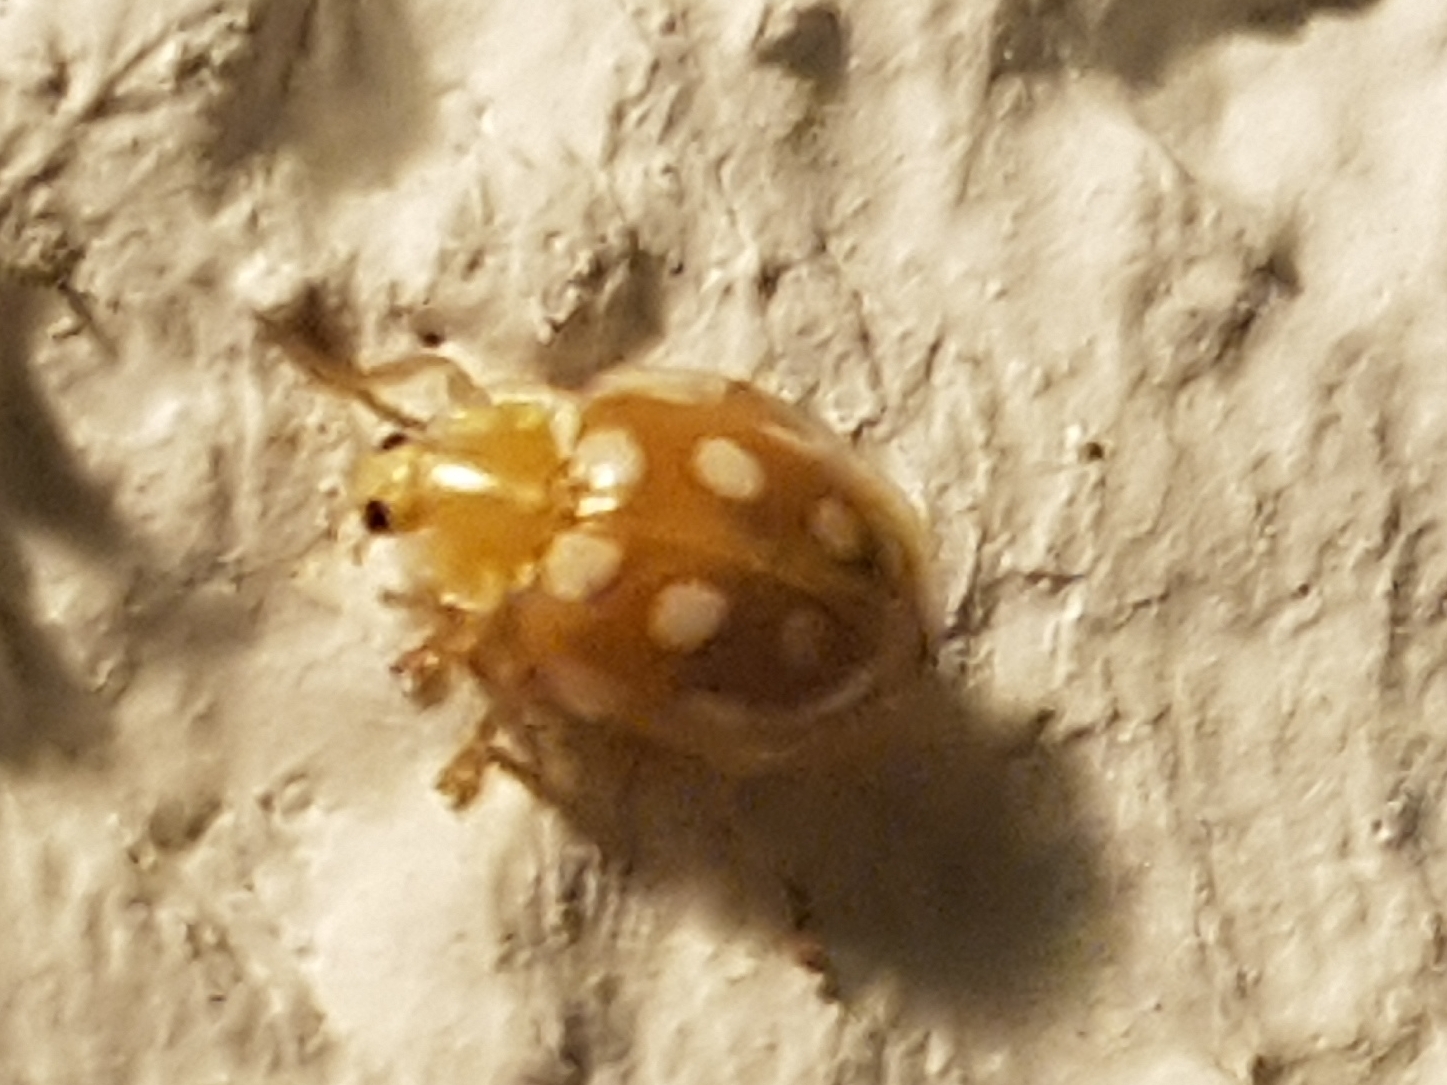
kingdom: Animalia
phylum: Arthropoda
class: Insecta
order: Coleoptera
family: Coccinellidae
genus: Halyzia
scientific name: Halyzia sedecimguttata
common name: Orange ladybird
